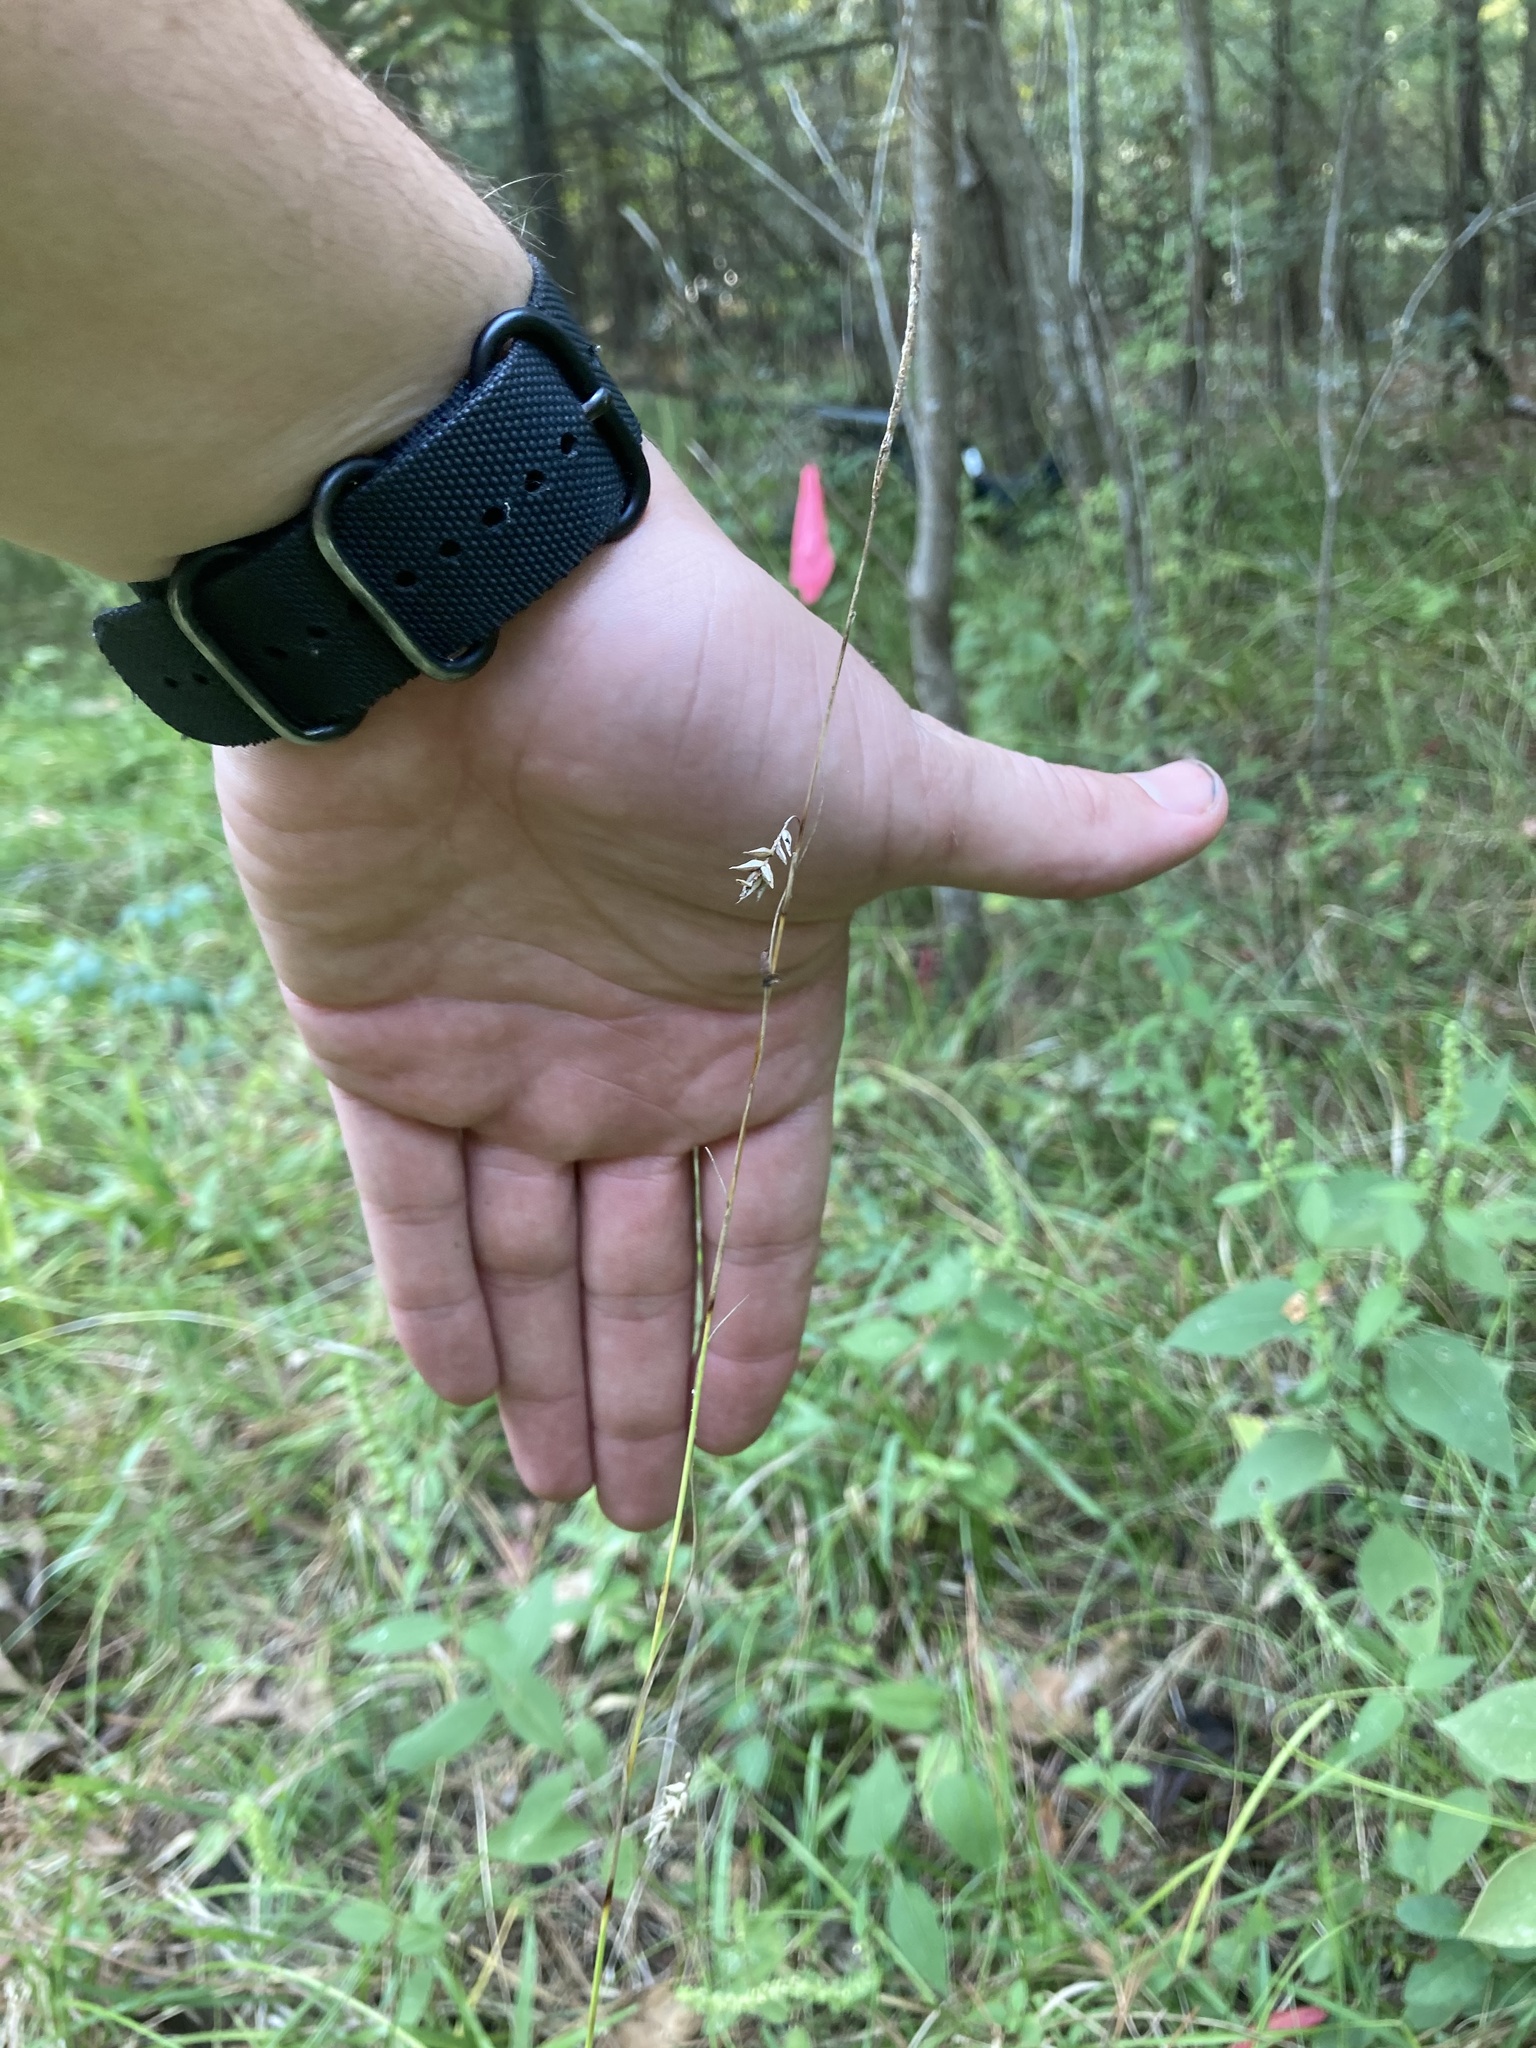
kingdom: Plantae
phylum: Tracheophyta
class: Liliopsida
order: Poales
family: Cyperaceae
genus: Carex
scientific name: Carex cherokeensis
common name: Cherokee sedge
